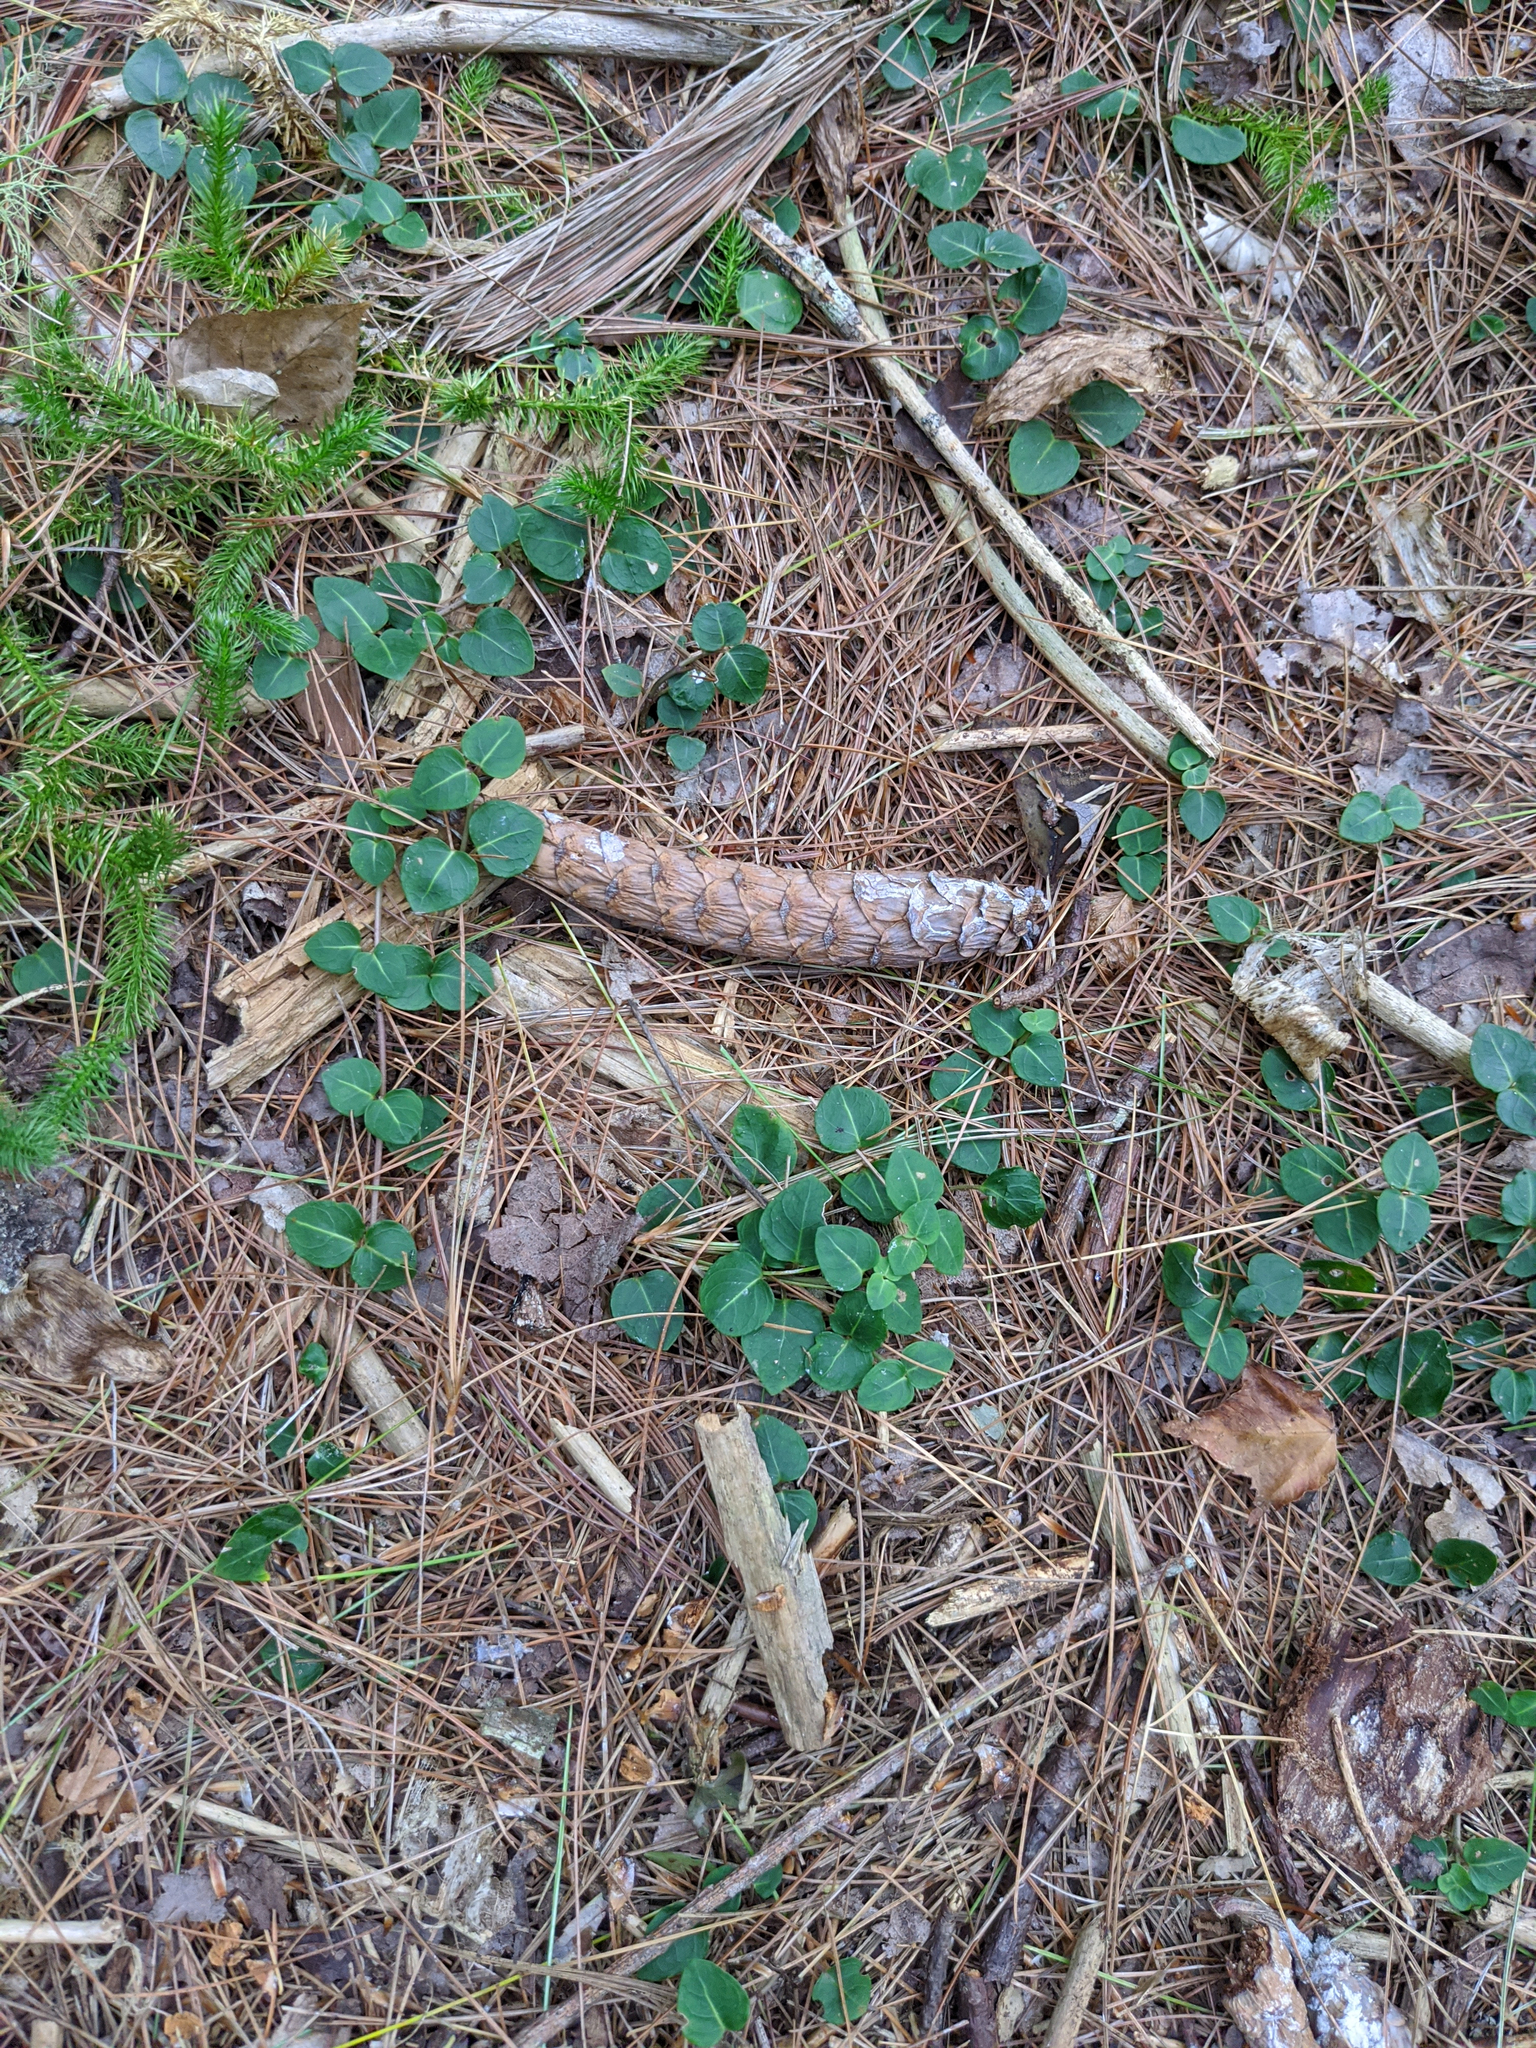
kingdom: Plantae
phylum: Tracheophyta
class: Magnoliopsida
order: Gentianales
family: Rubiaceae
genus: Mitchella
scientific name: Mitchella repens
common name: Partridge-berry
